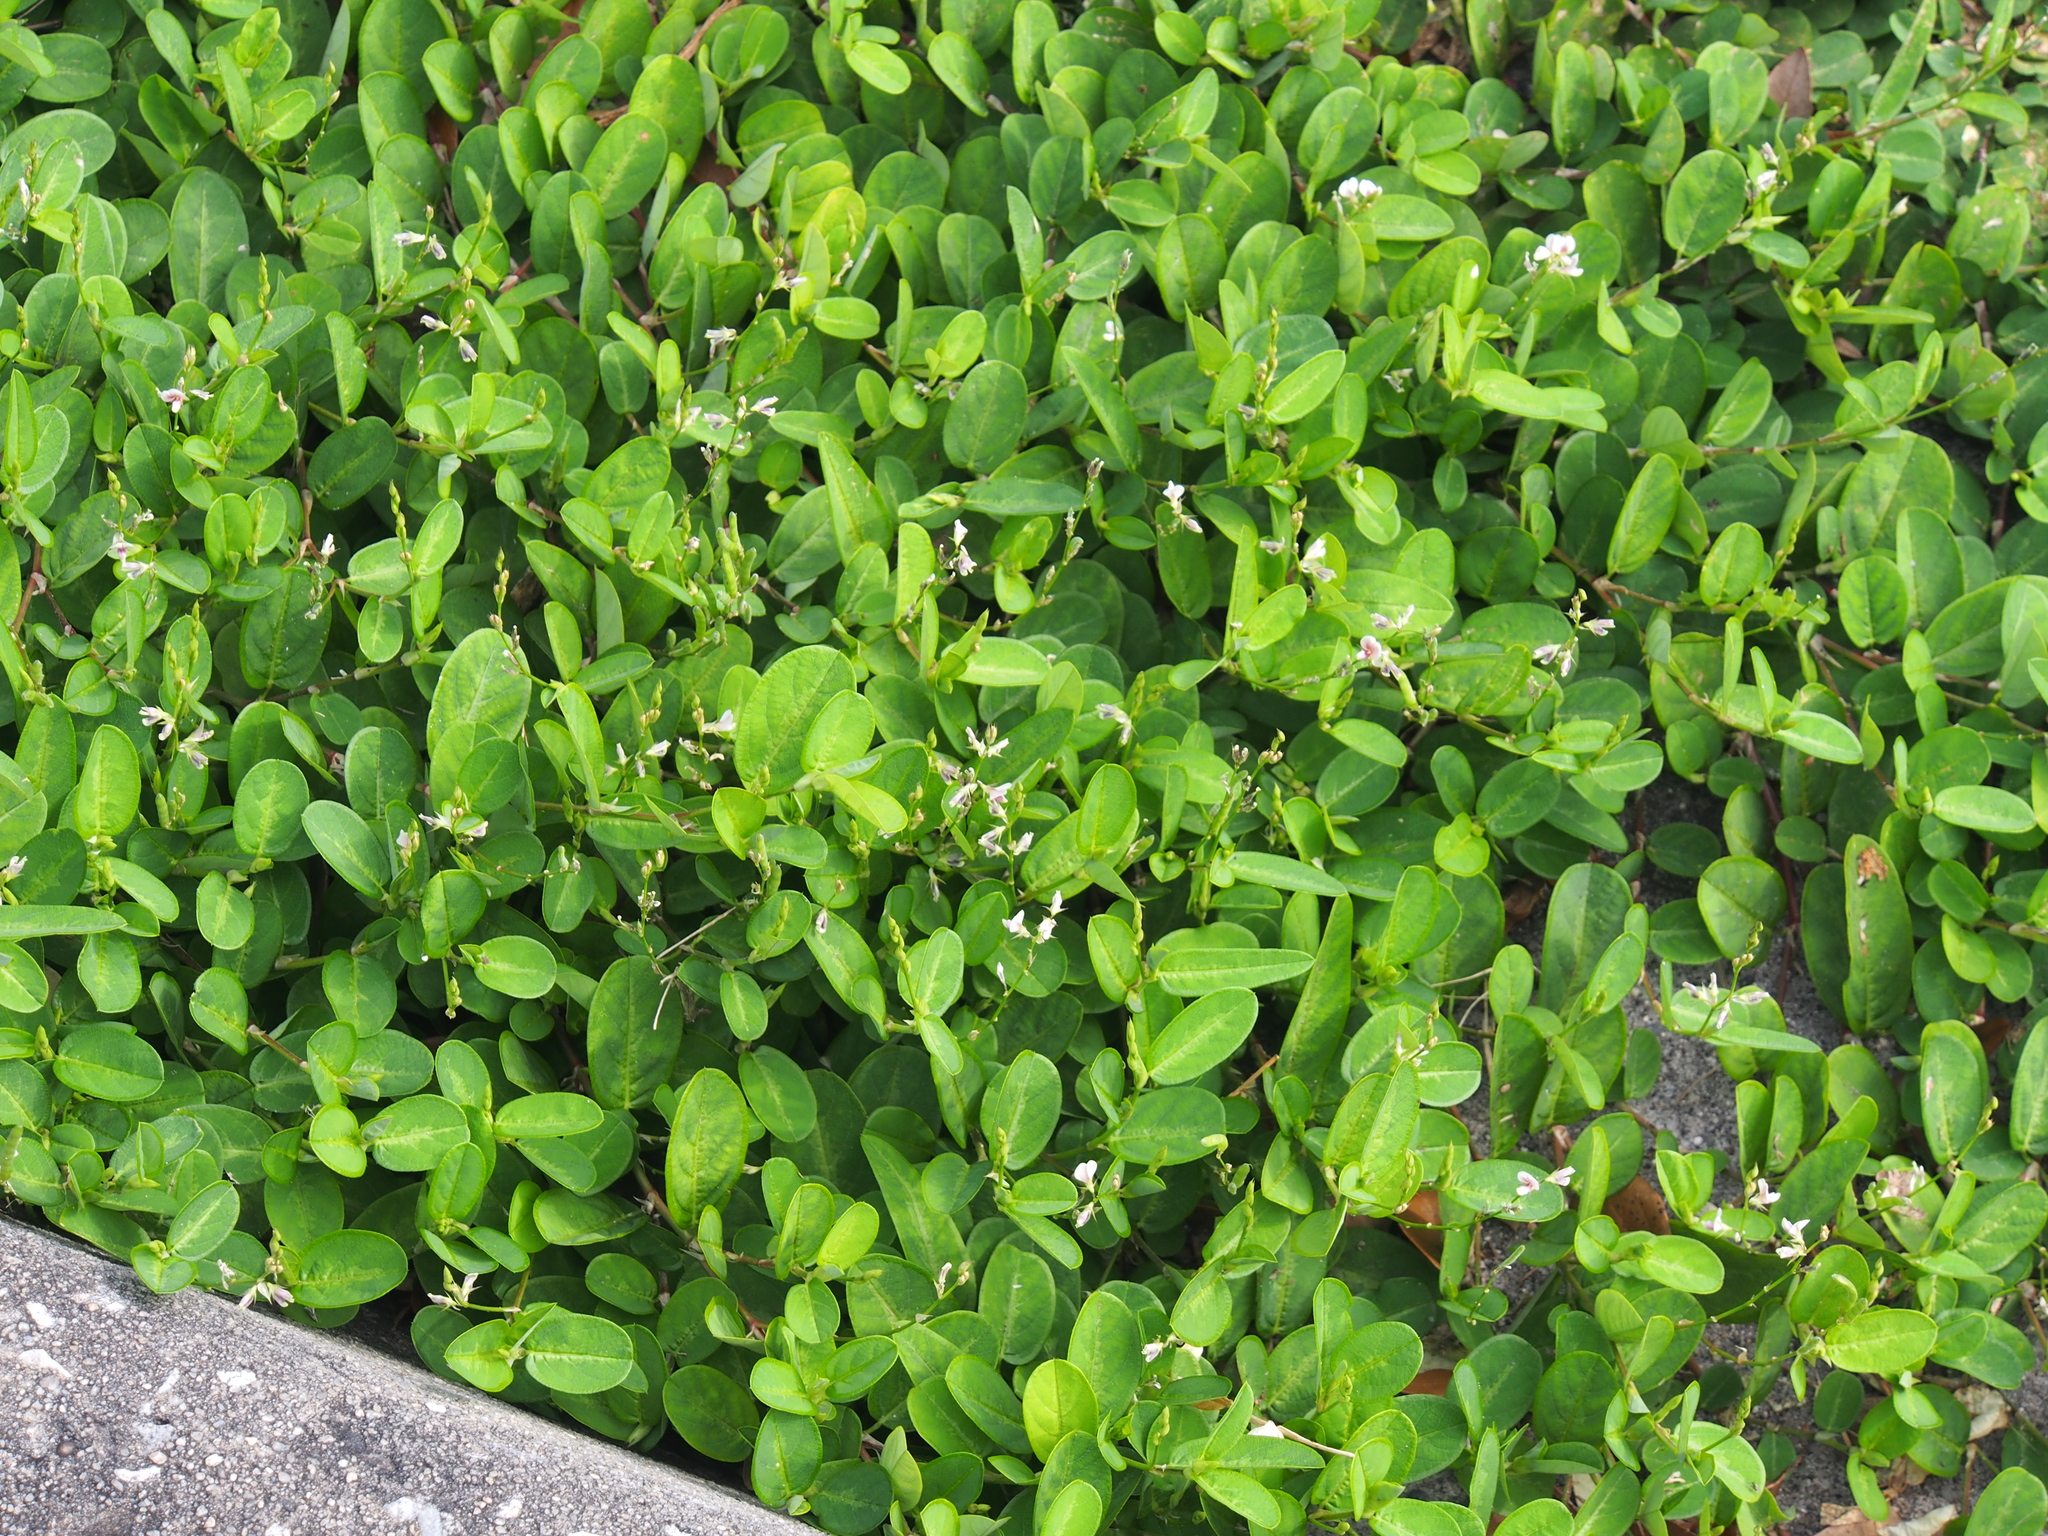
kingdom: Plantae
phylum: Tracheophyta
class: Magnoliopsida
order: Fabales
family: Fabaceae
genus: Desmodium
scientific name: Desmodium incanum
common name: Tickclover
